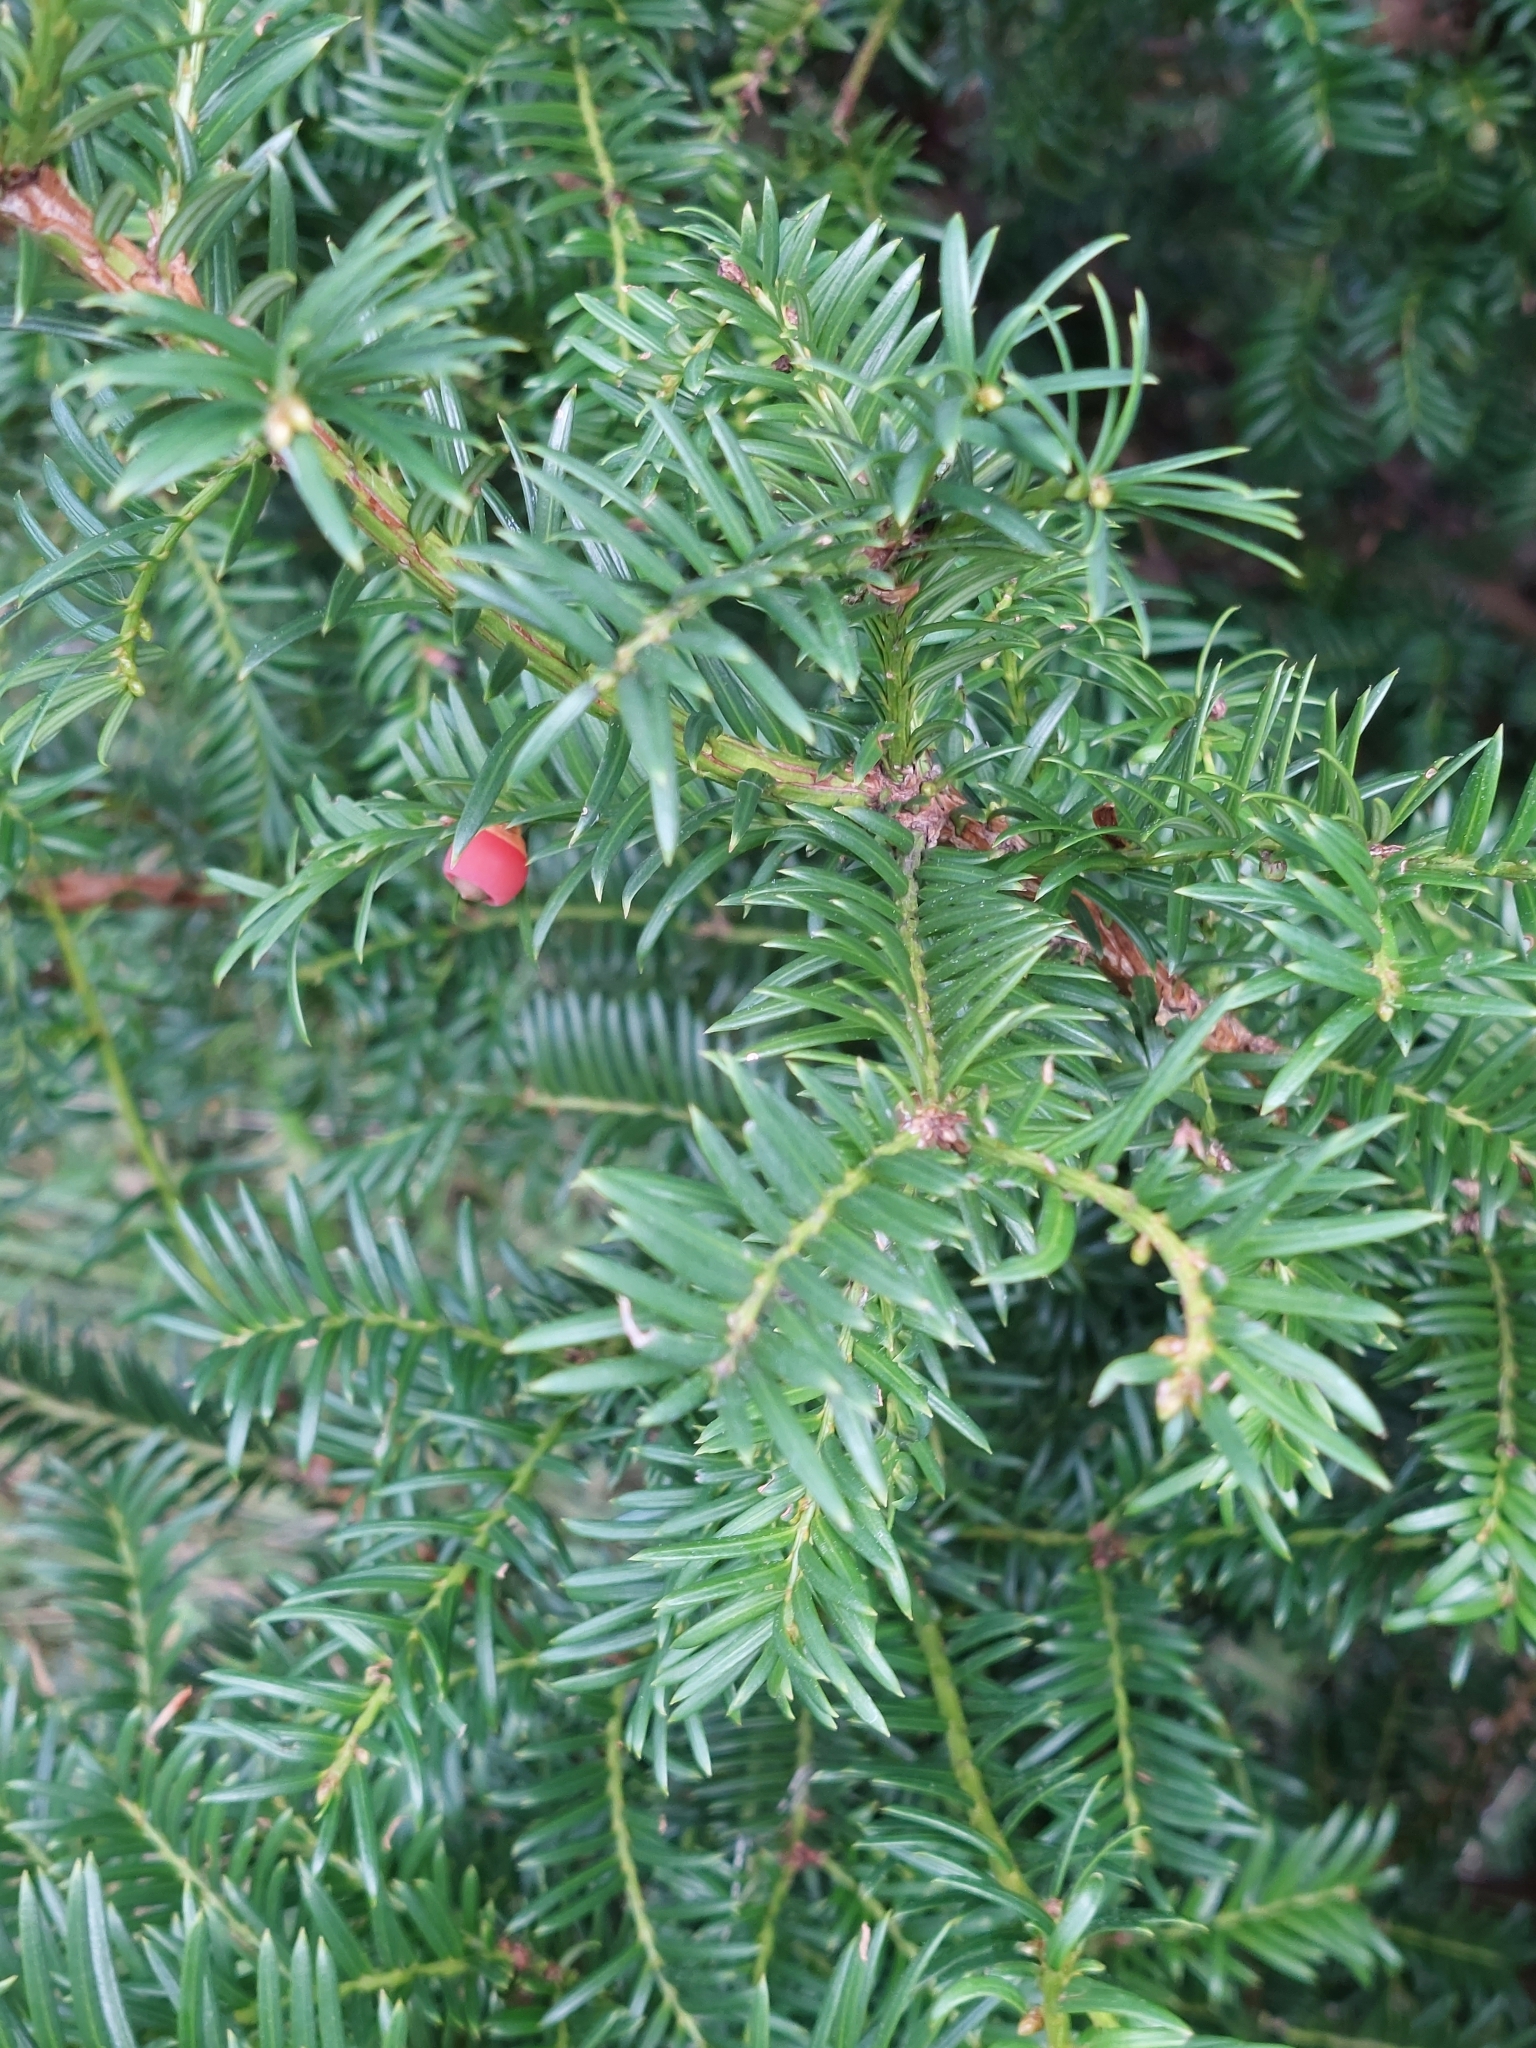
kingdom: Plantae
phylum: Tracheophyta
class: Pinopsida
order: Pinales
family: Taxaceae
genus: Taxus
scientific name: Taxus baccata
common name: Yew
